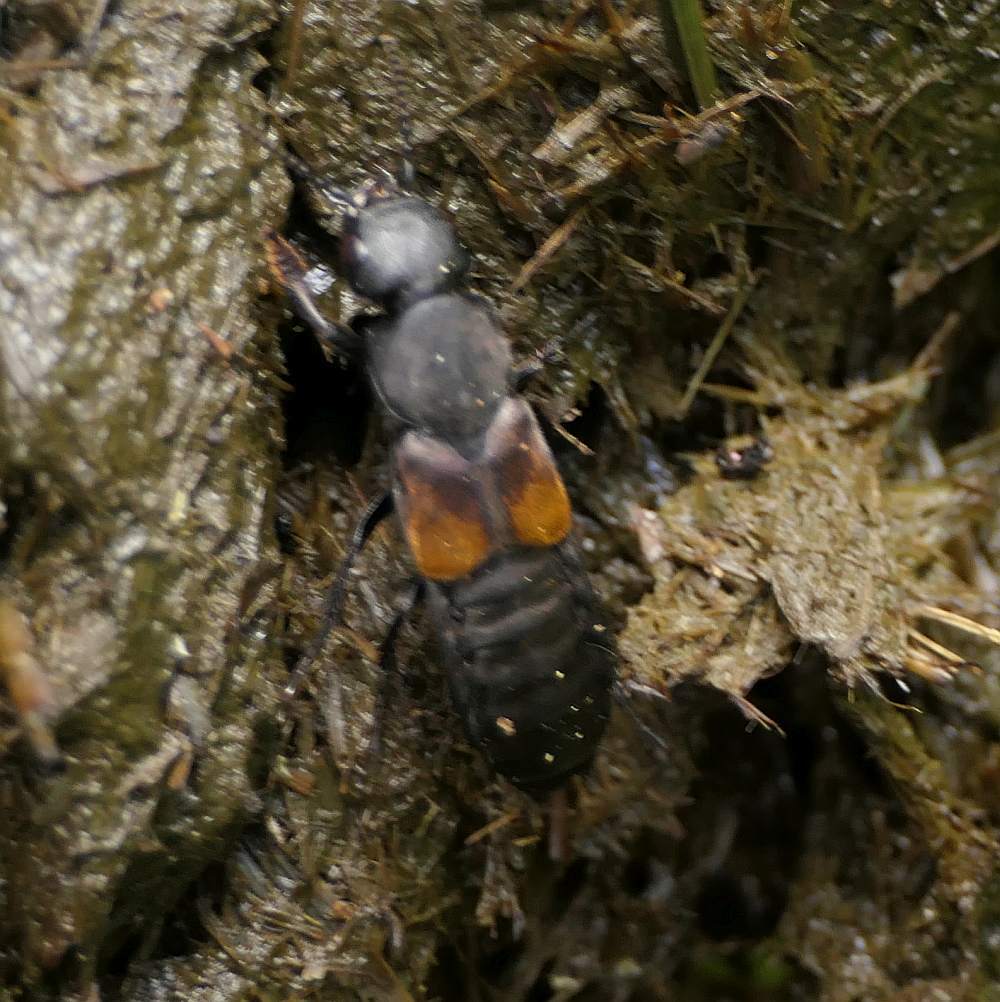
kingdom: Animalia
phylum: Arthropoda
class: Insecta
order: Coleoptera
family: Staphylinidae
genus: Platydracus
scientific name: Platydracus fossator
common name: Red-spotted rove beetle
